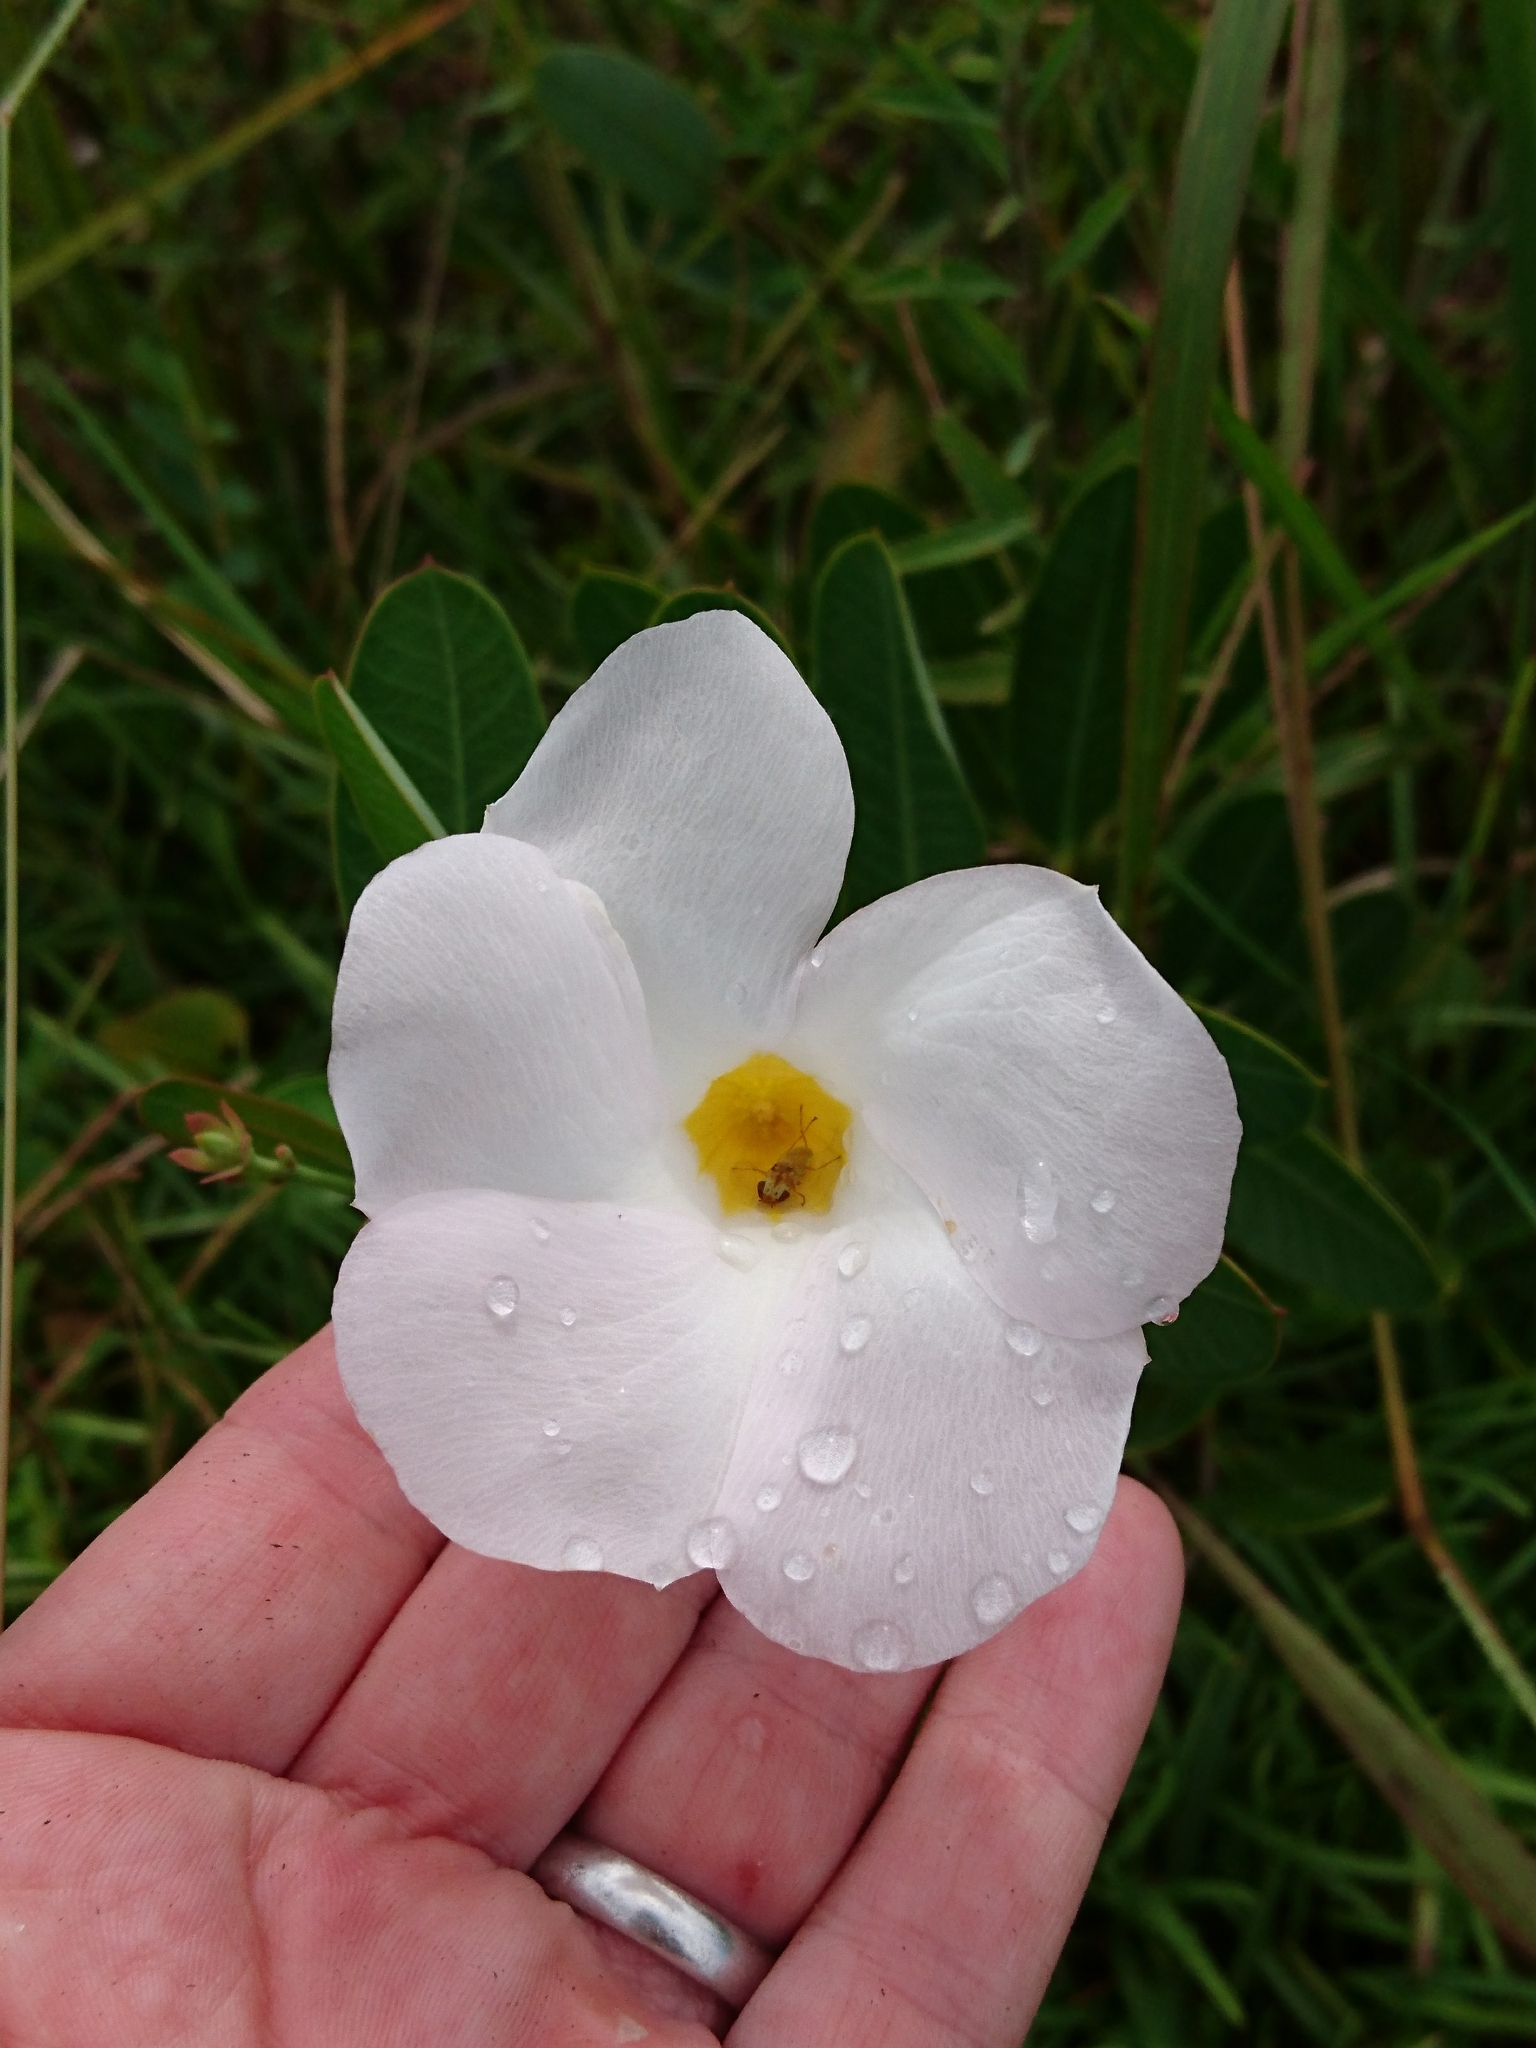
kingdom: Plantae
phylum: Tracheophyta
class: Magnoliopsida
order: Gentianales
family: Apocynaceae
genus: Rhabdadenia
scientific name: Rhabdadenia biflora
